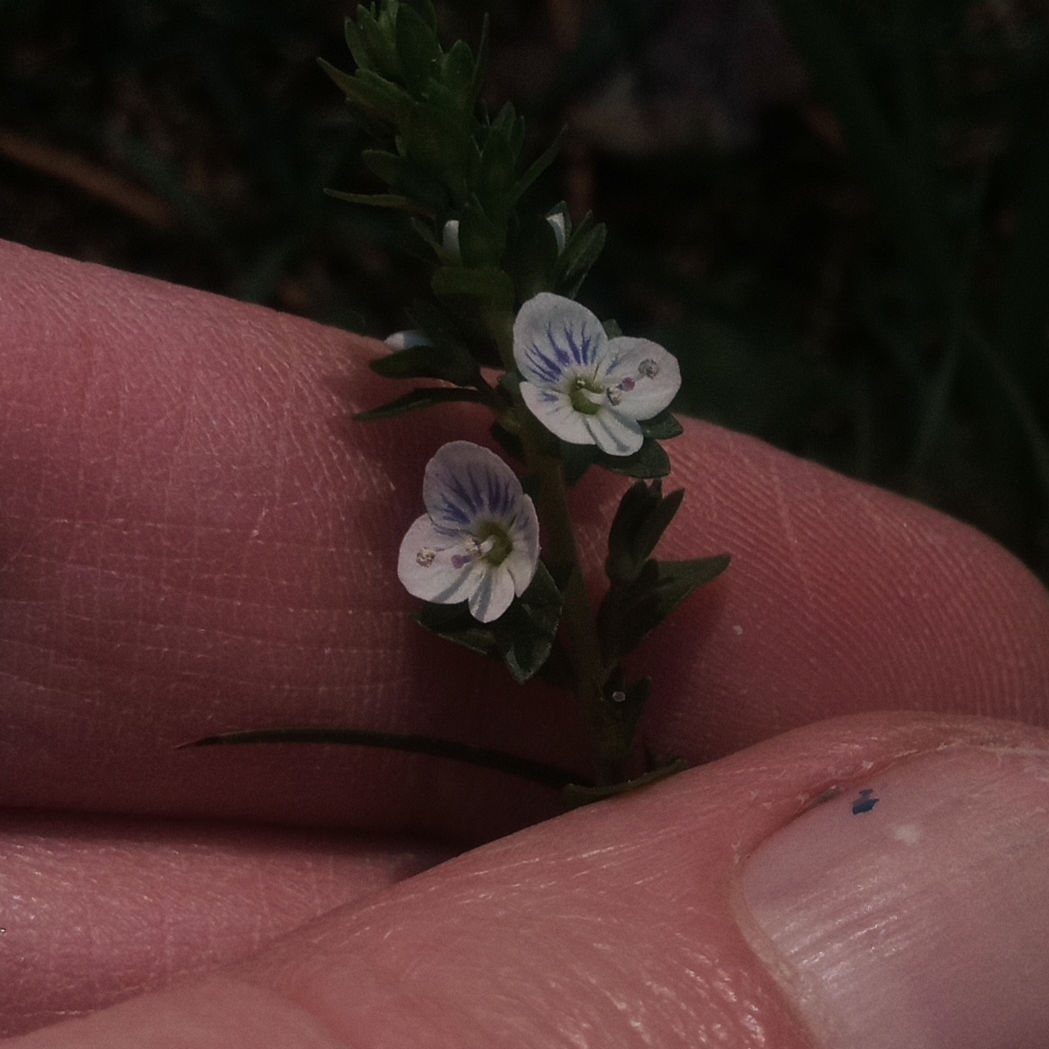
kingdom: Plantae
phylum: Tracheophyta
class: Magnoliopsida
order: Lamiales
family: Plantaginaceae
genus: Veronica
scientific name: Veronica serpyllifolia
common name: Thyme-leaved speedwell
